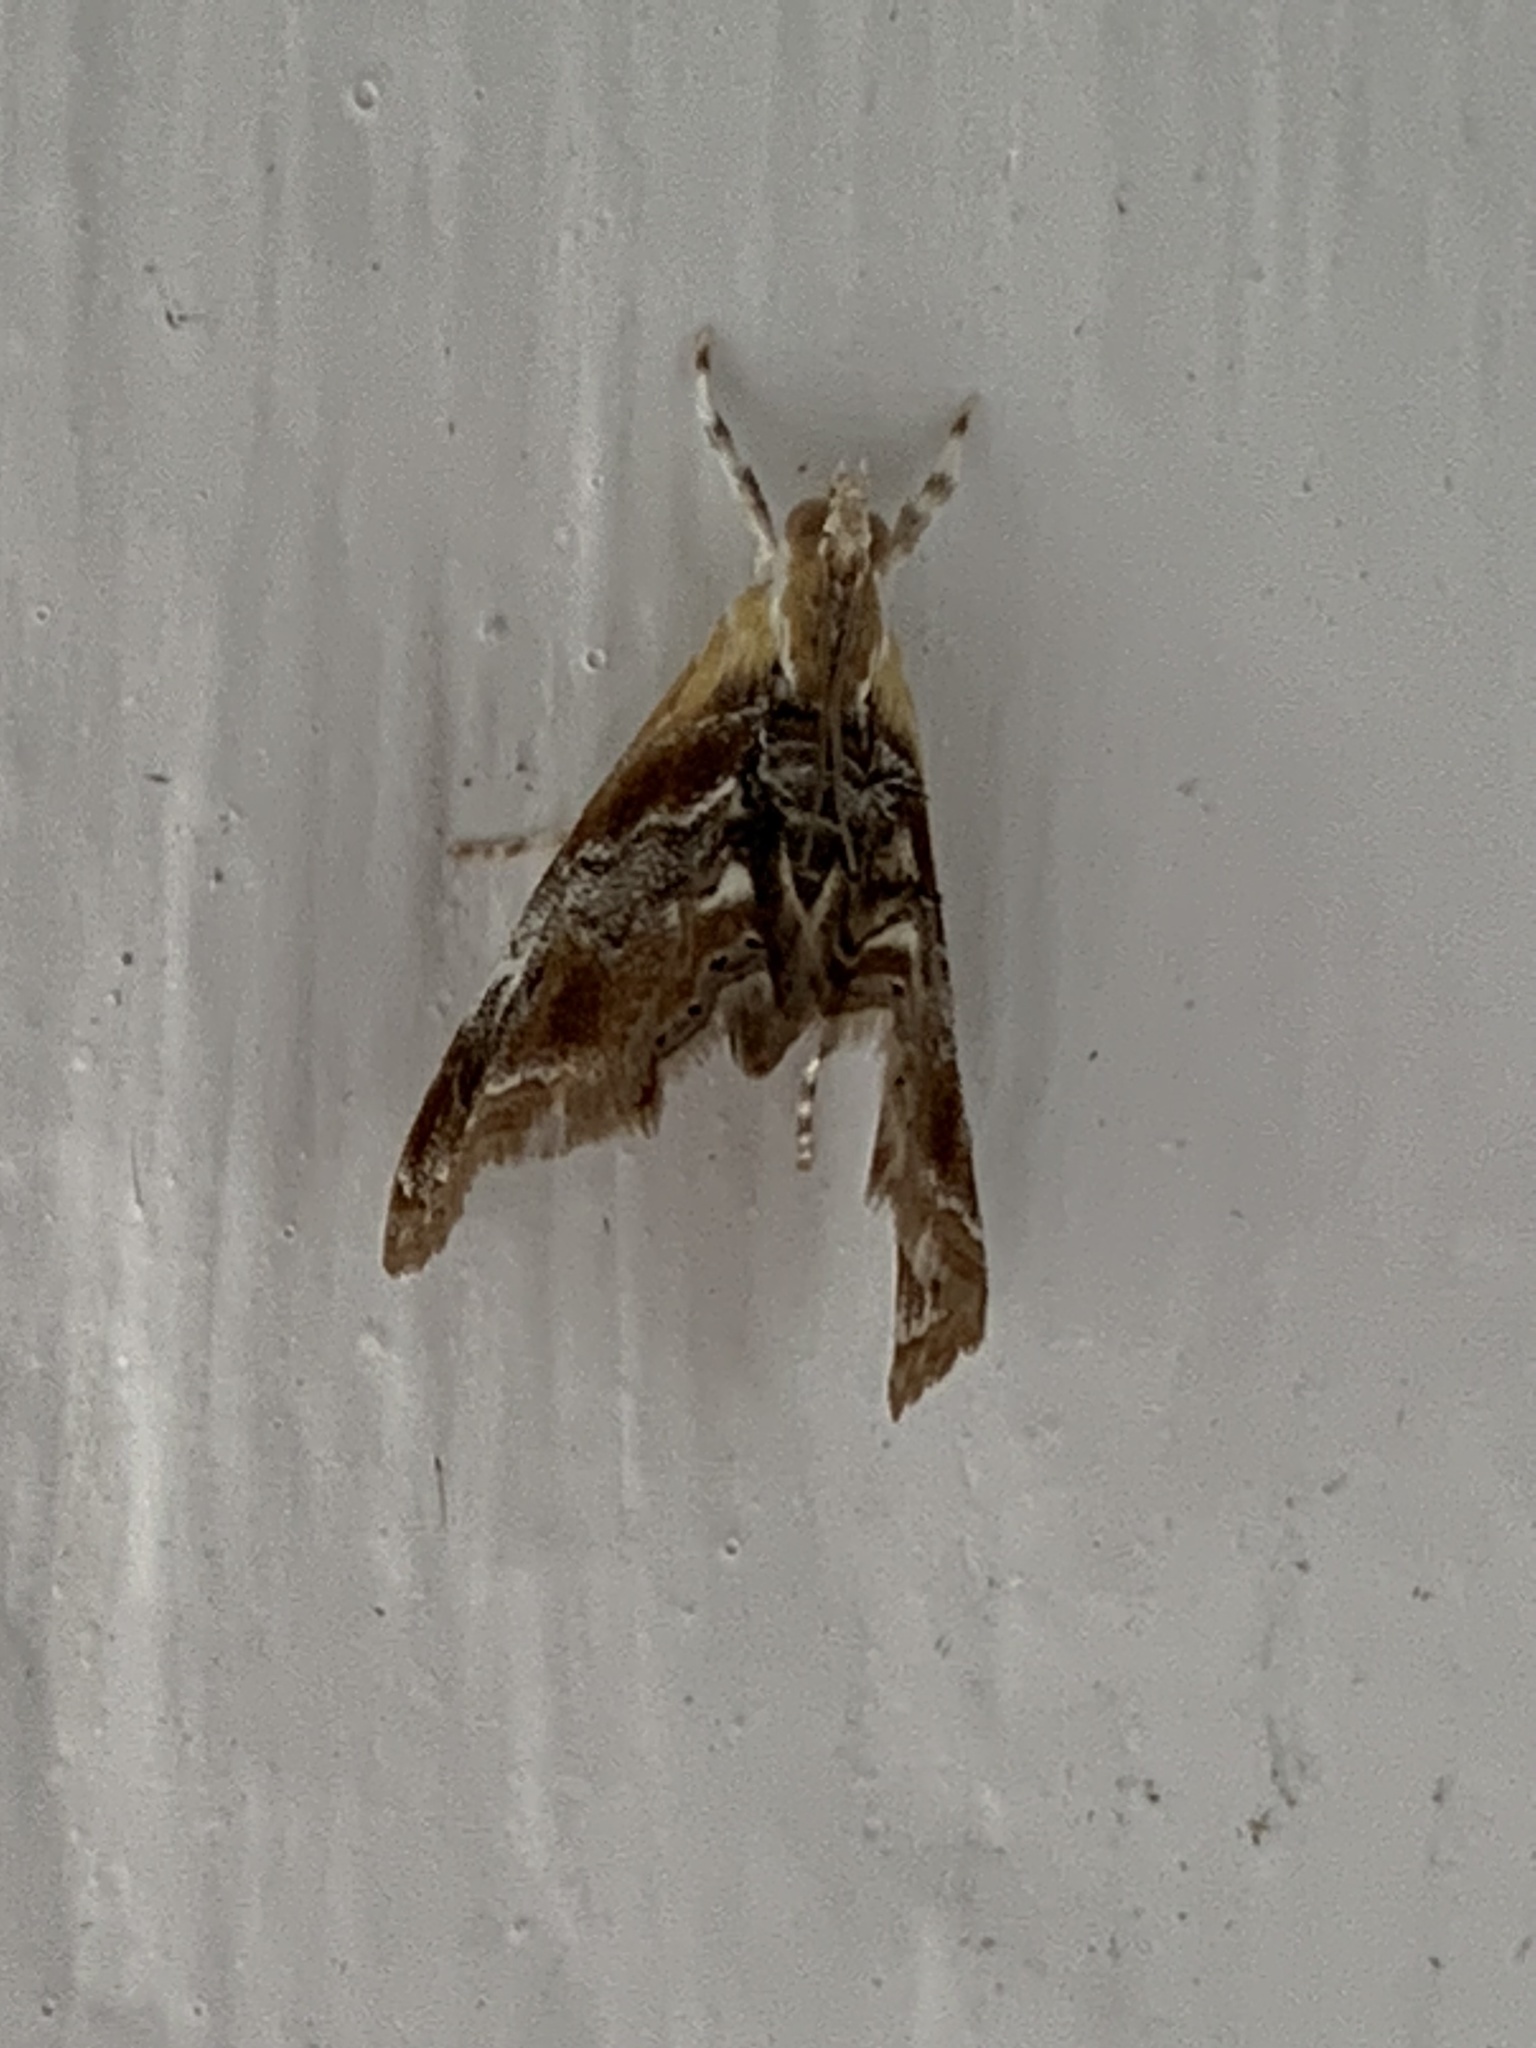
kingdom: Animalia
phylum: Arthropoda
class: Insecta
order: Lepidoptera
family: Crambidae
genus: Dicymolomia
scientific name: Dicymolomia julianalis
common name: Julia's dicymolomia moth
